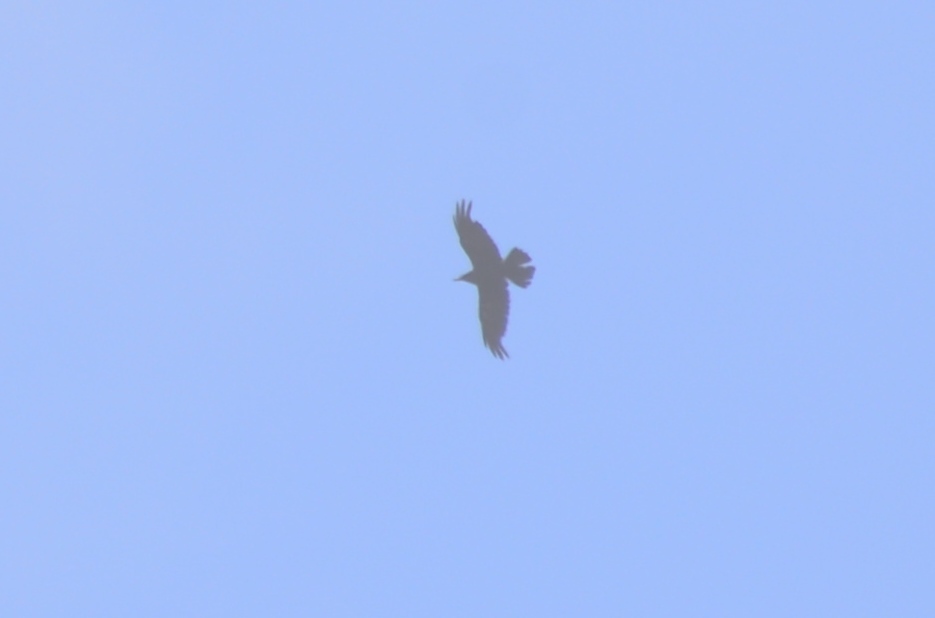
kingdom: Animalia
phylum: Chordata
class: Aves
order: Passeriformes
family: Corvidae
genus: Corvus
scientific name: Corvus corax
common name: Common raven
